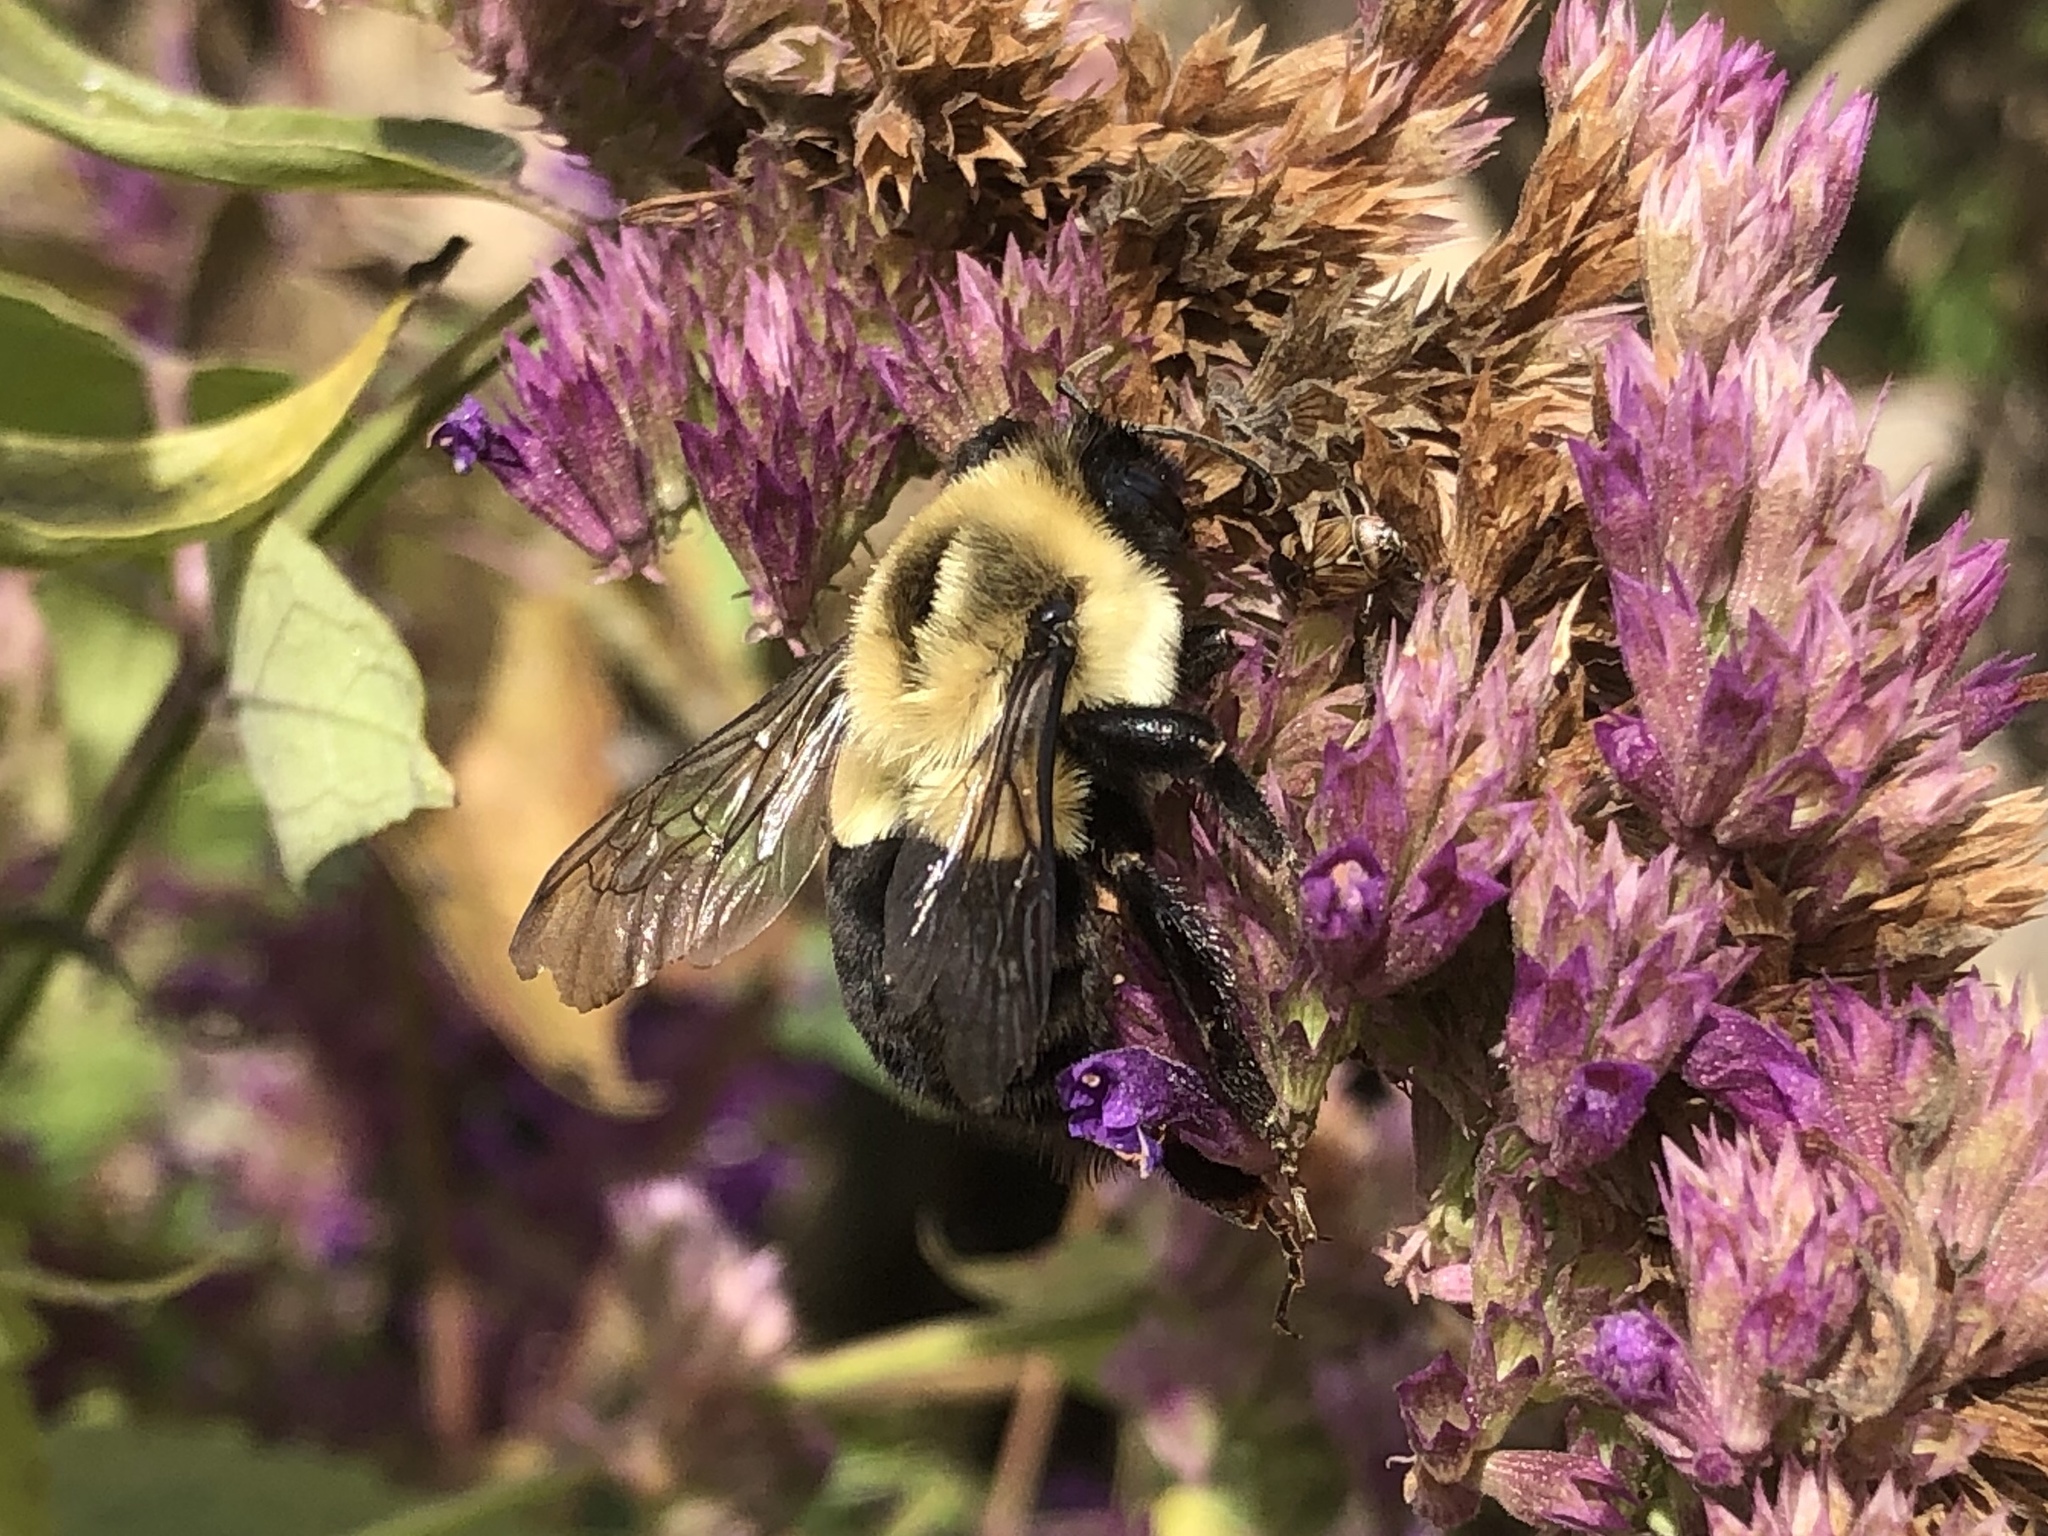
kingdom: Animalia
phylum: Arthropoda
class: Insecta
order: Hymenoptera
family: Apidae
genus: Bombus
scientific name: Bombus impatiens
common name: Common eastern bumble bee
